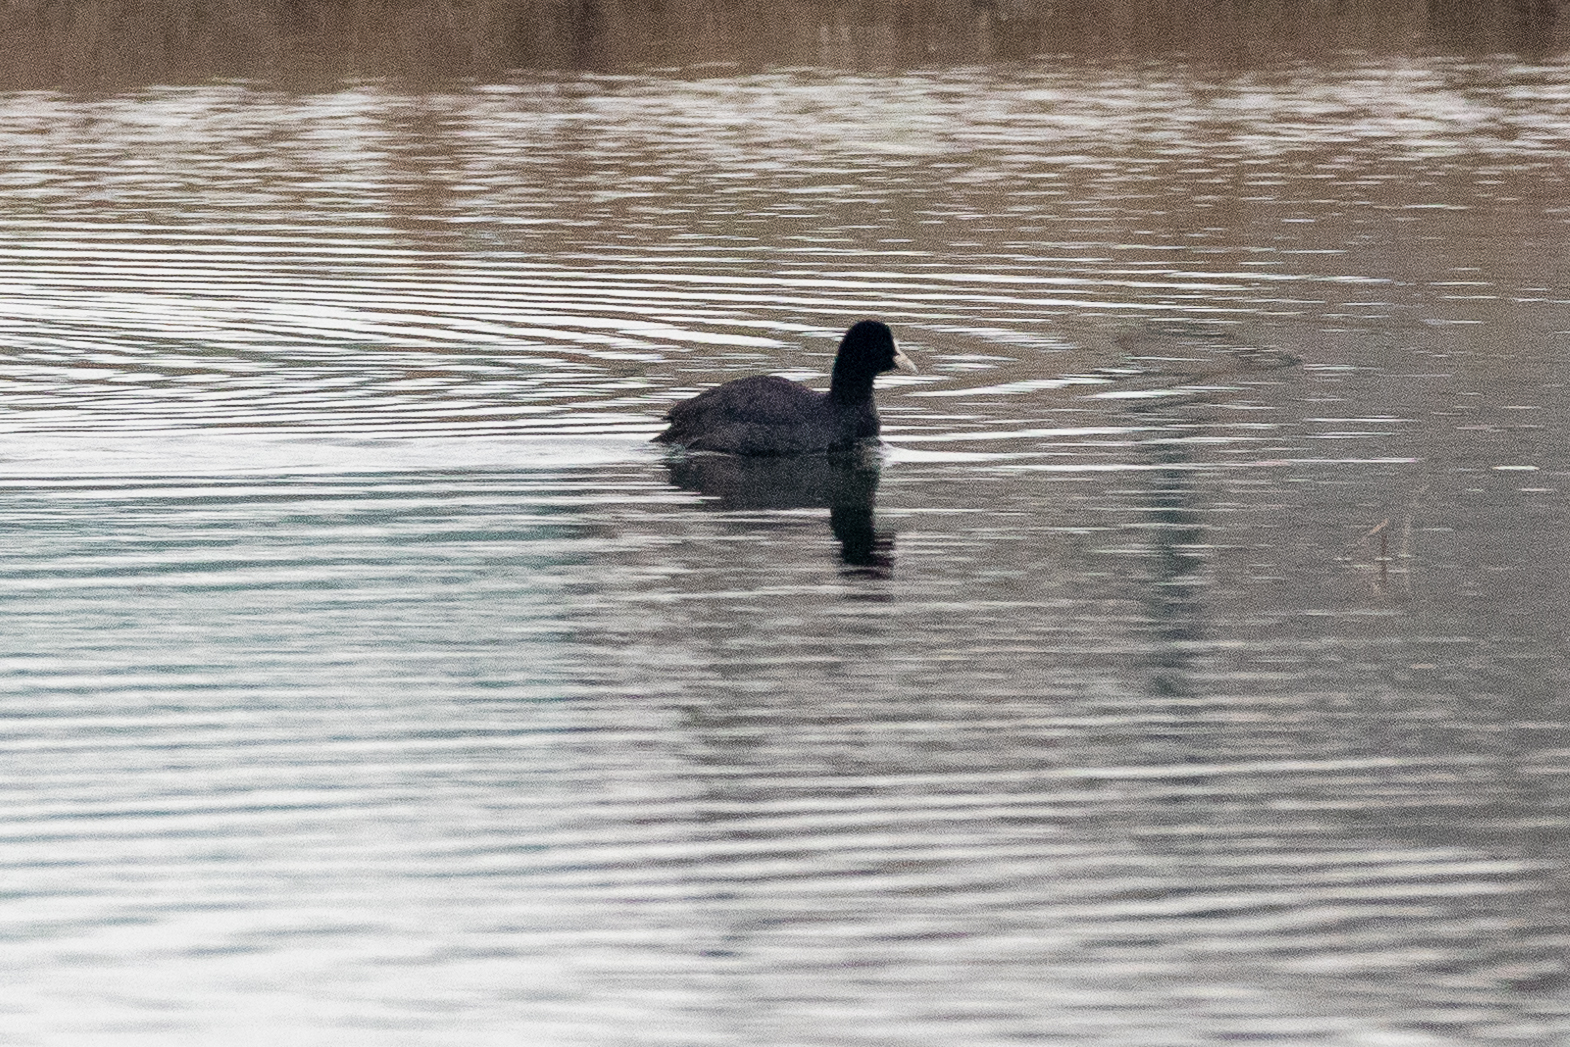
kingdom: Animalia
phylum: Chordata
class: Aves
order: Gruiformes
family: Rallidae
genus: Fulica
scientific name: Fulica atra
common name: Eurasian coot
